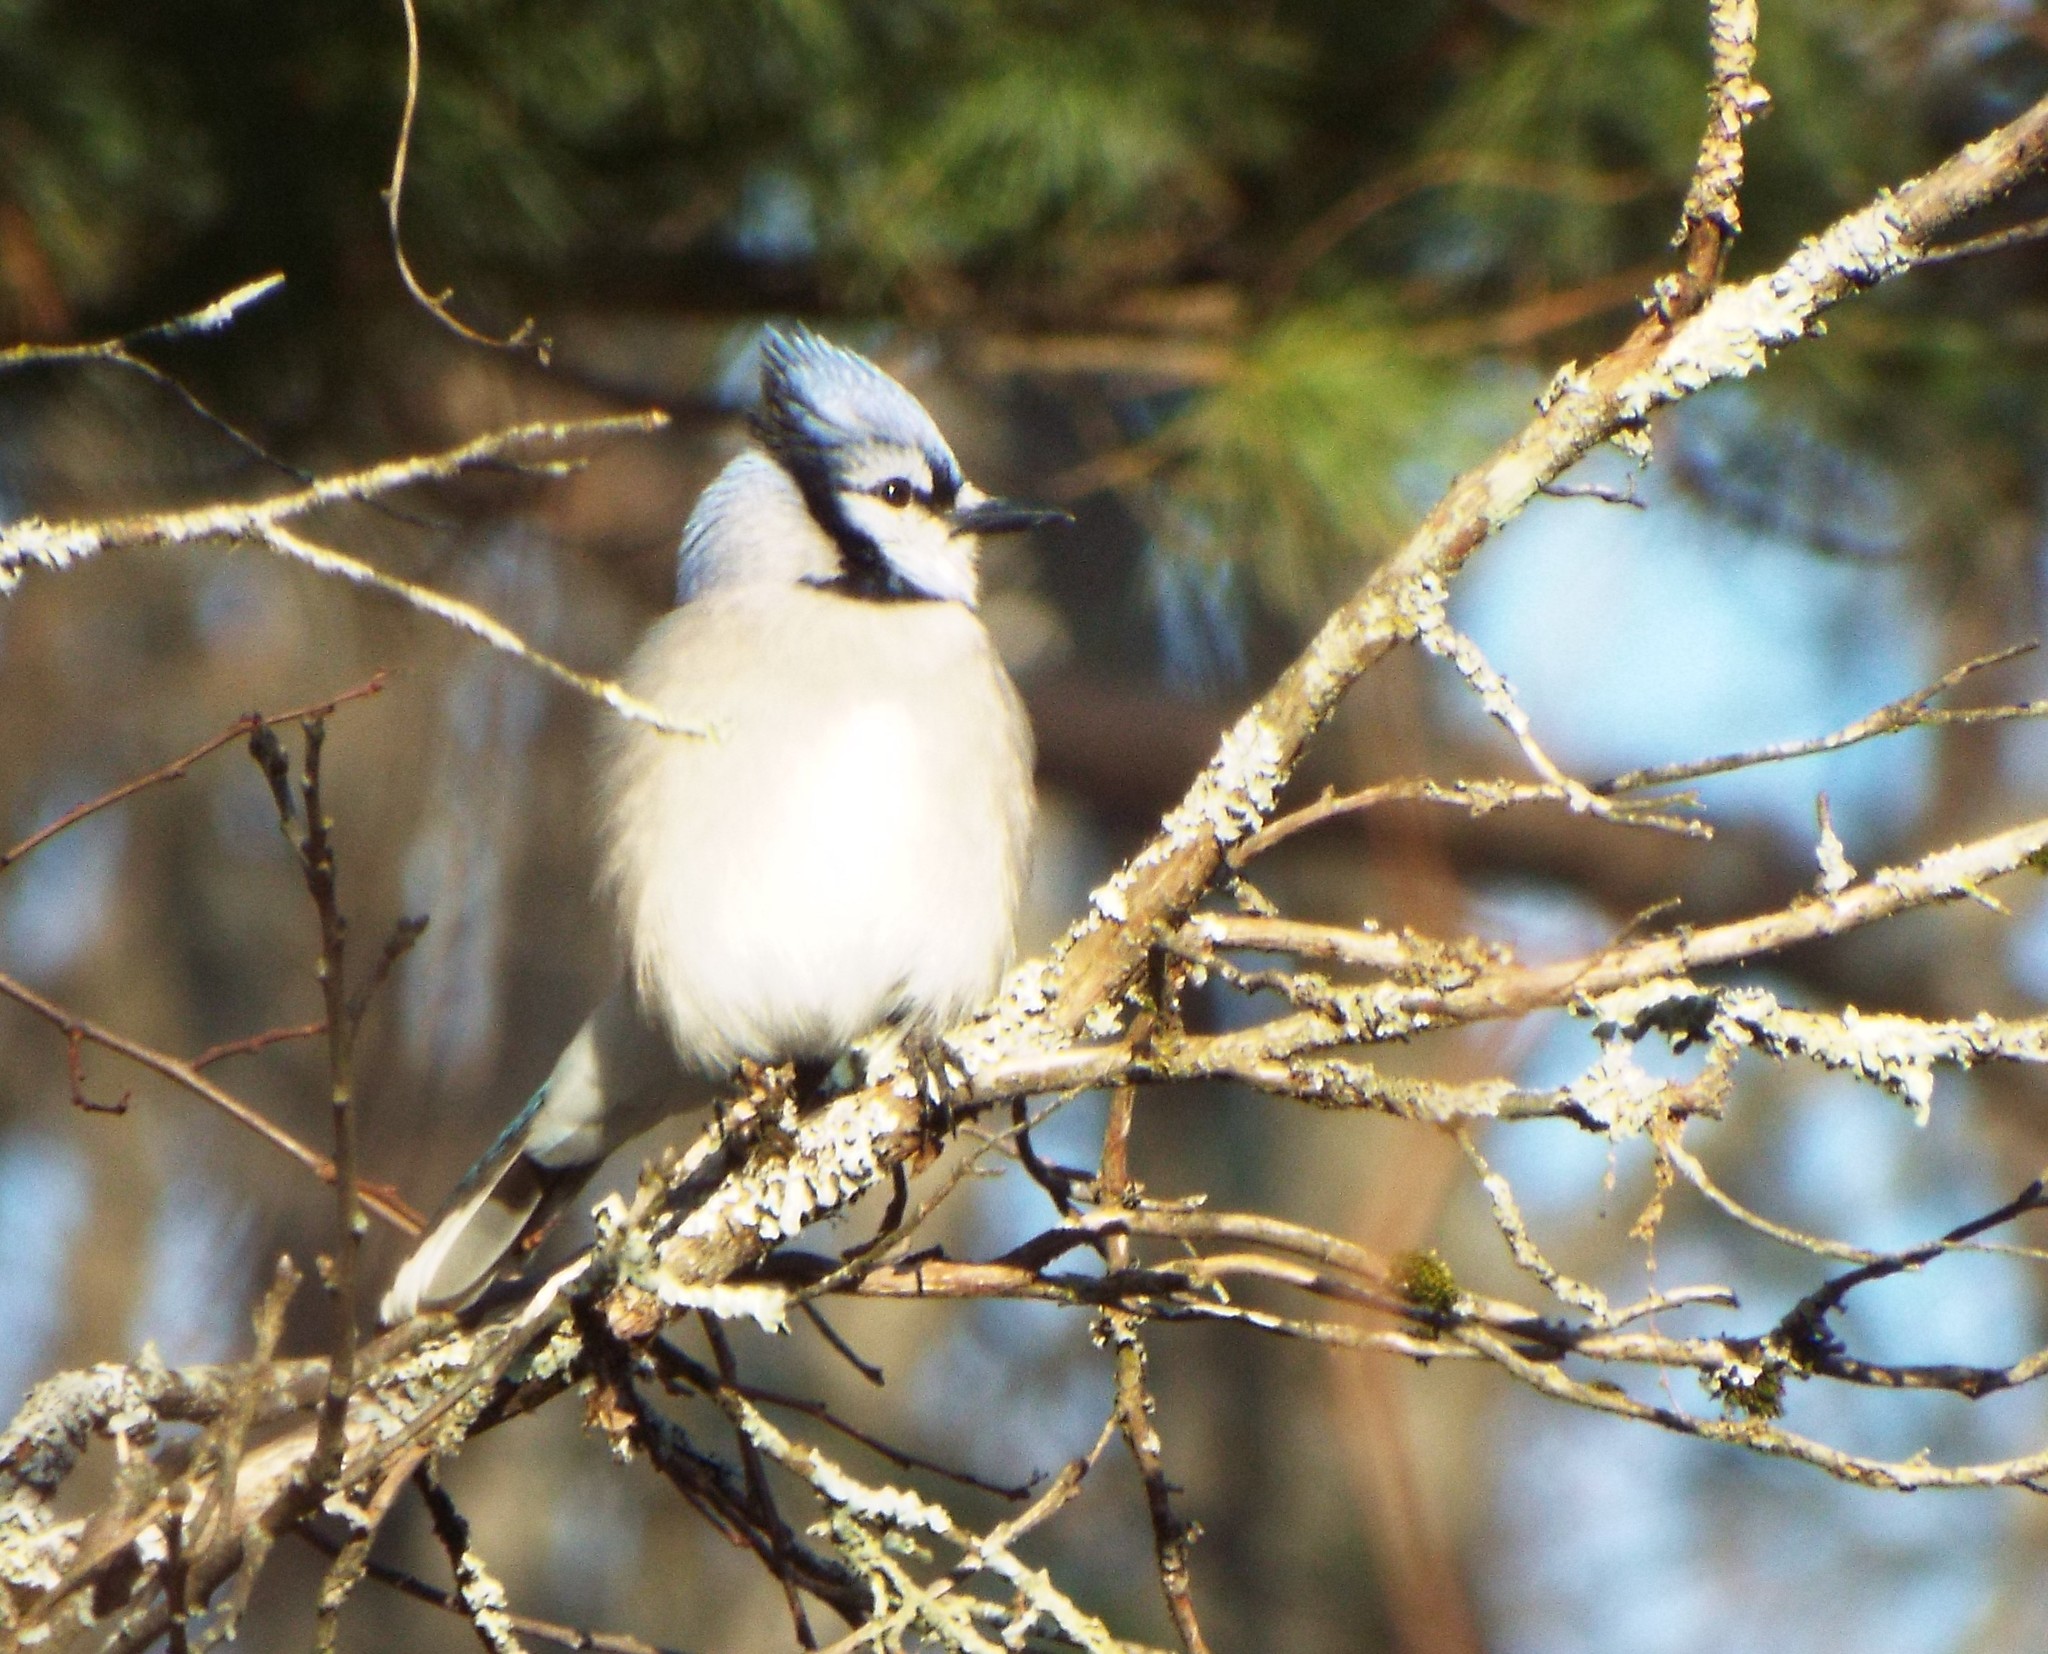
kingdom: Animalia
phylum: Chordata
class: Aves
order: Passeriformes
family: Corvidae
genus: Cyanocitta
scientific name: Cyanocitta cristata
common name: Blue jay
